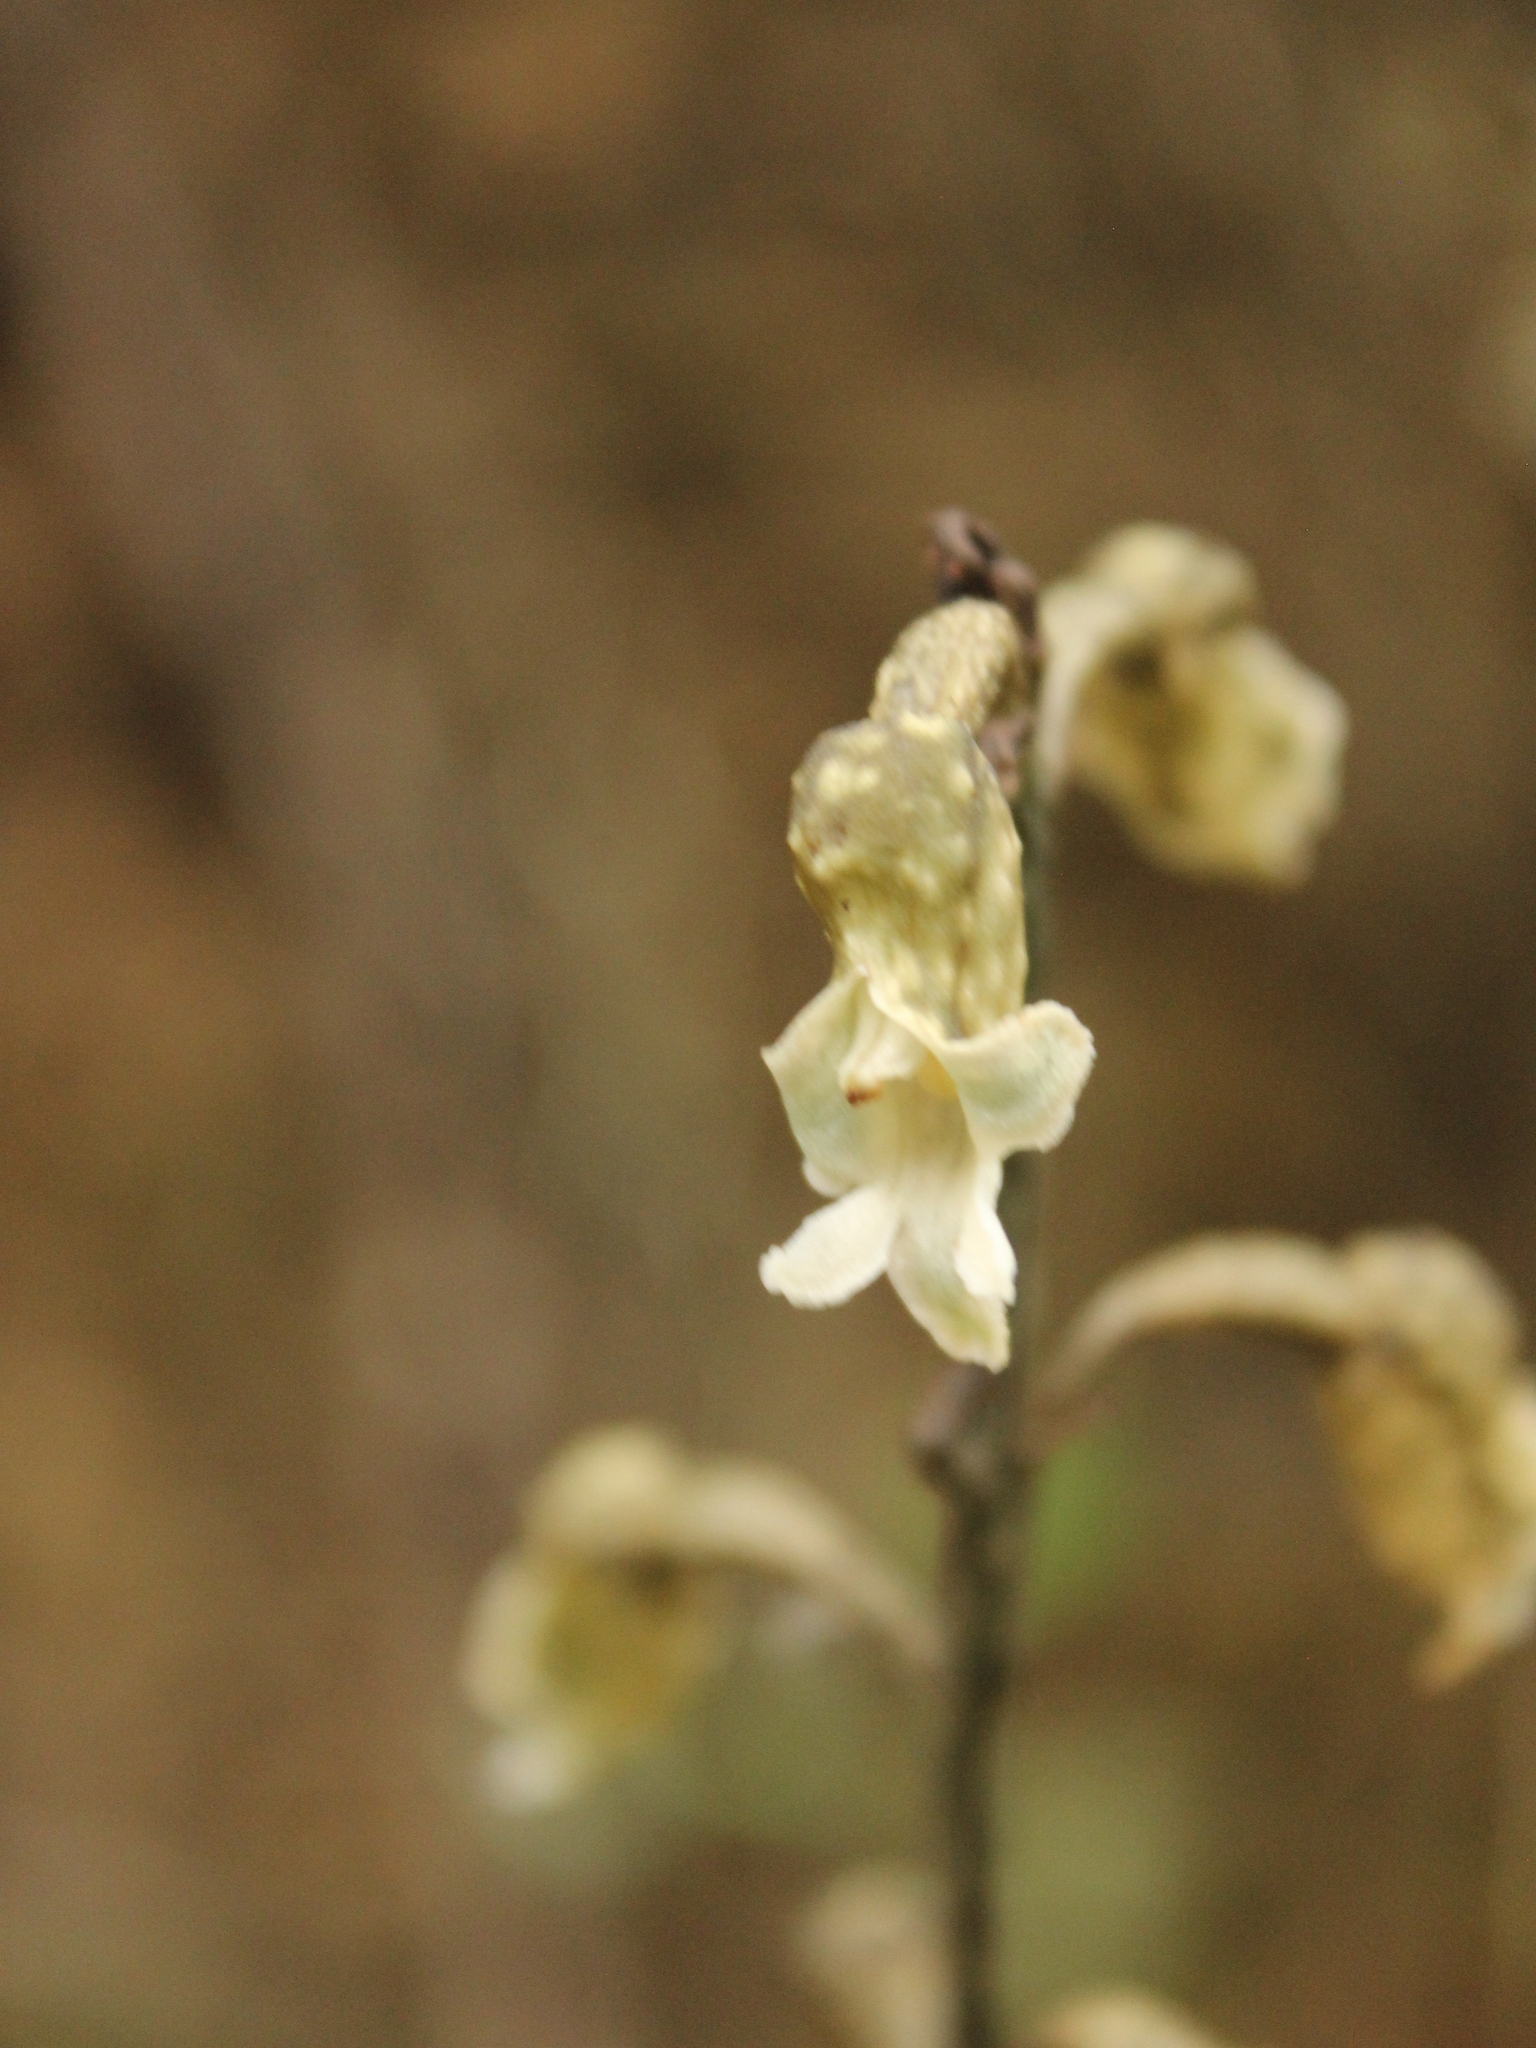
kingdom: Plantae
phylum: Tracheophyta
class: Liliopsida
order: Asparagales
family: Orchidaceae
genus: Gastrodia
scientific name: Gastrodia cooperae
